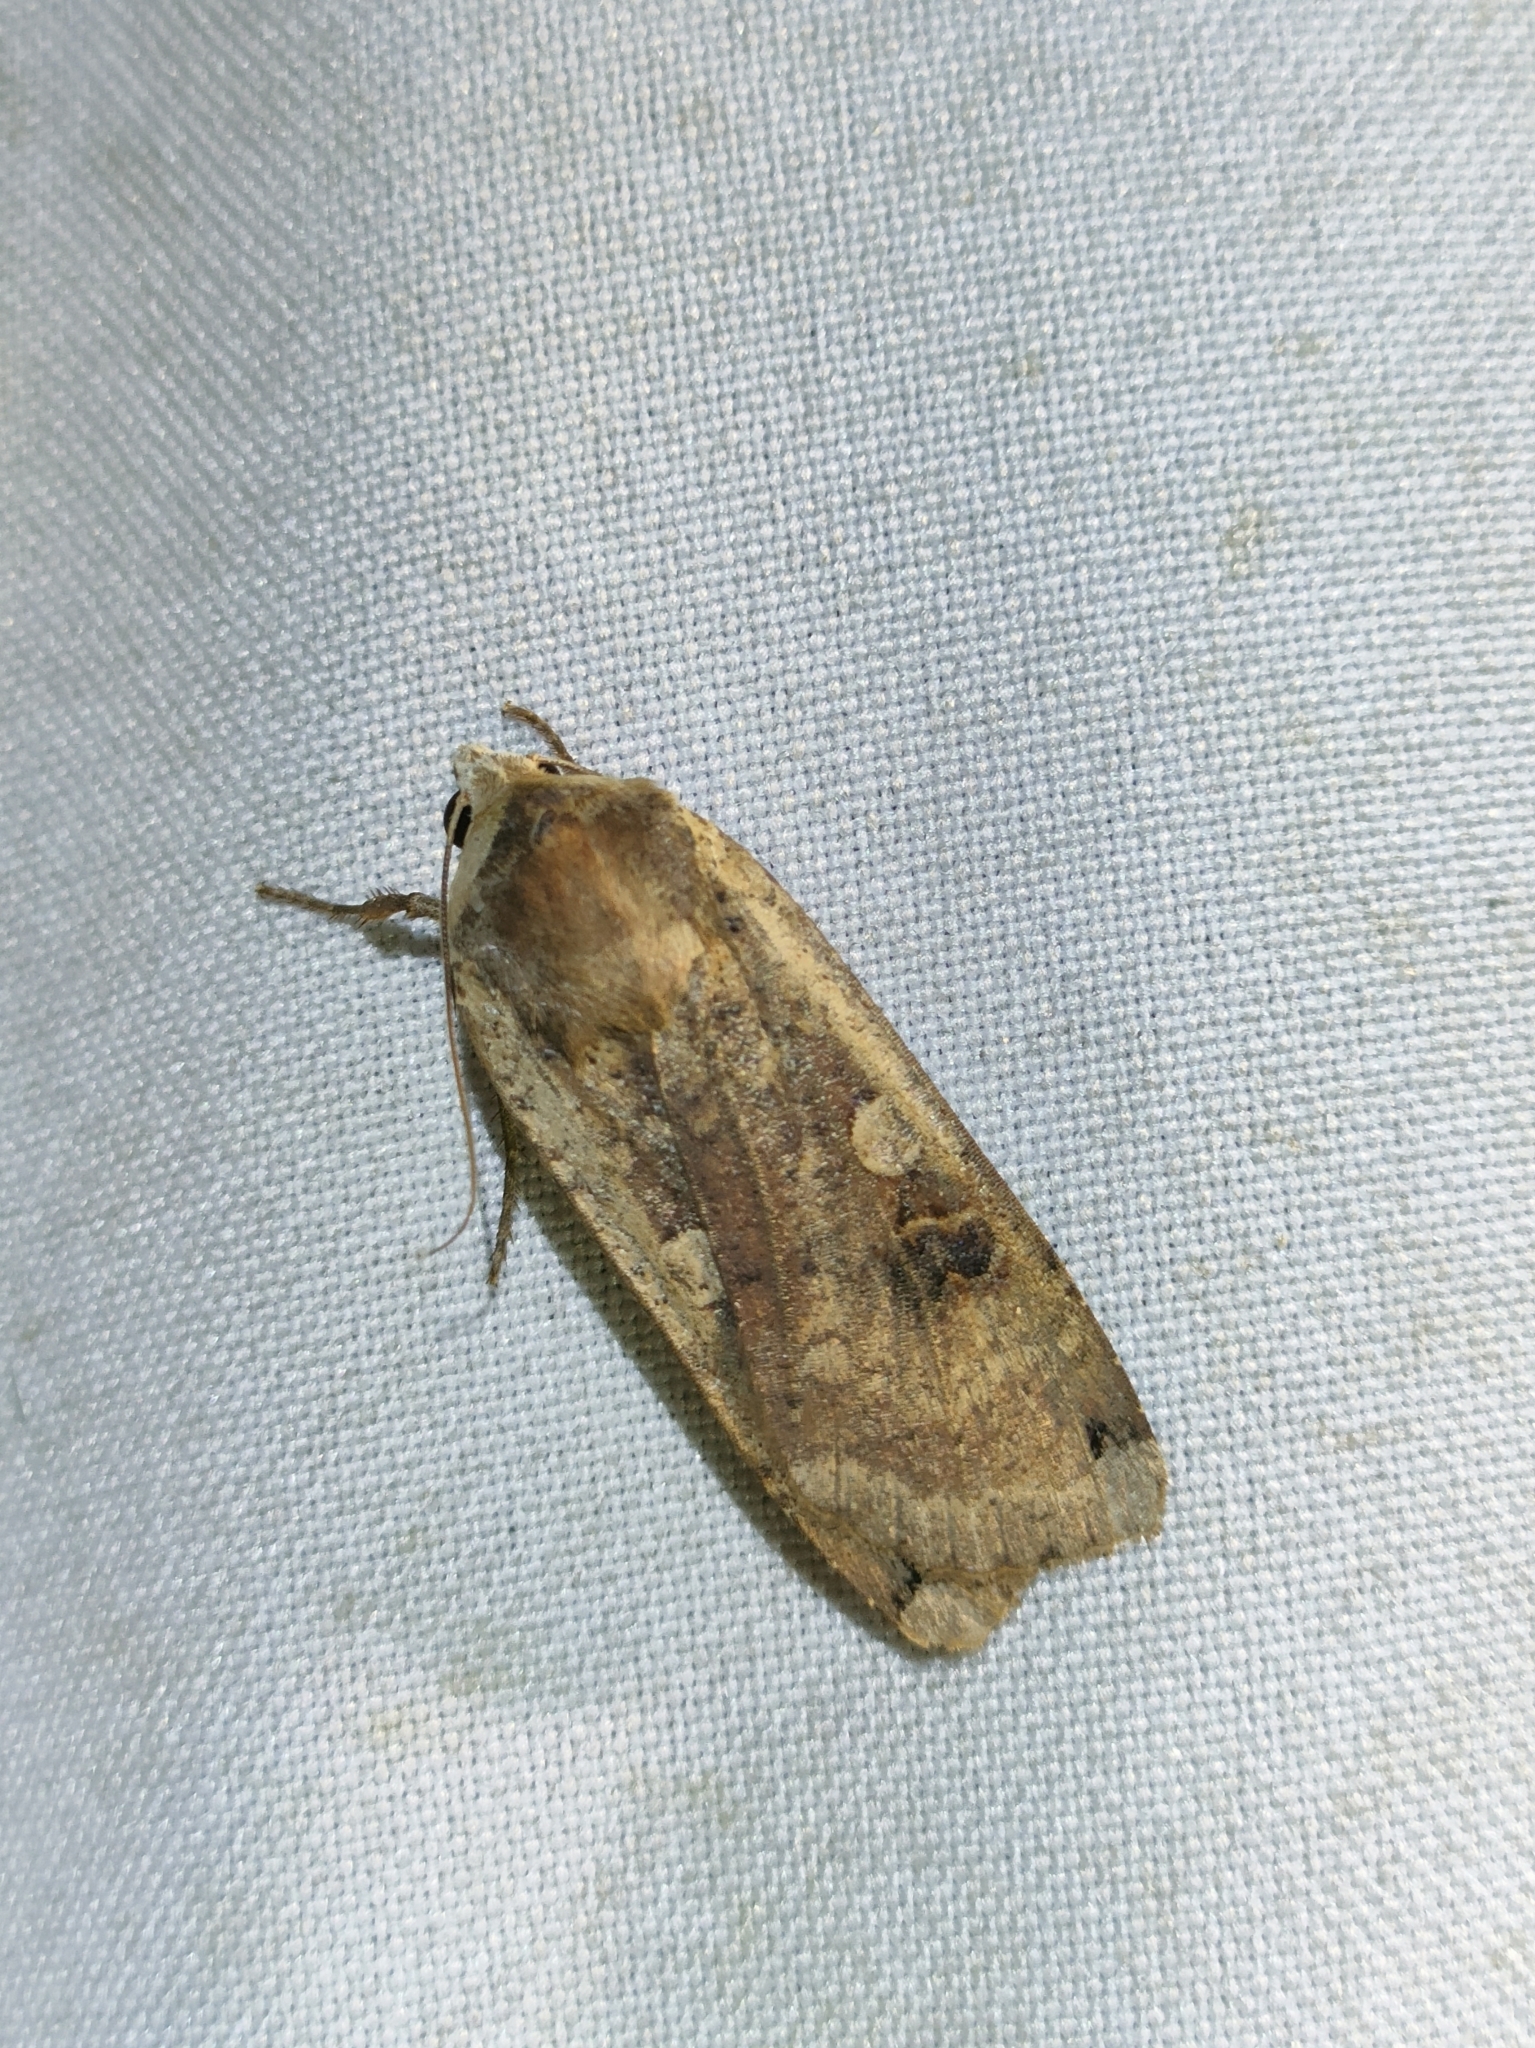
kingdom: Animalia
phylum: Arthropoda
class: Insecta
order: Lepidoptera
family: Noctuidae
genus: Noctua
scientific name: Noctua pronuba
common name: Large yellow underwing
